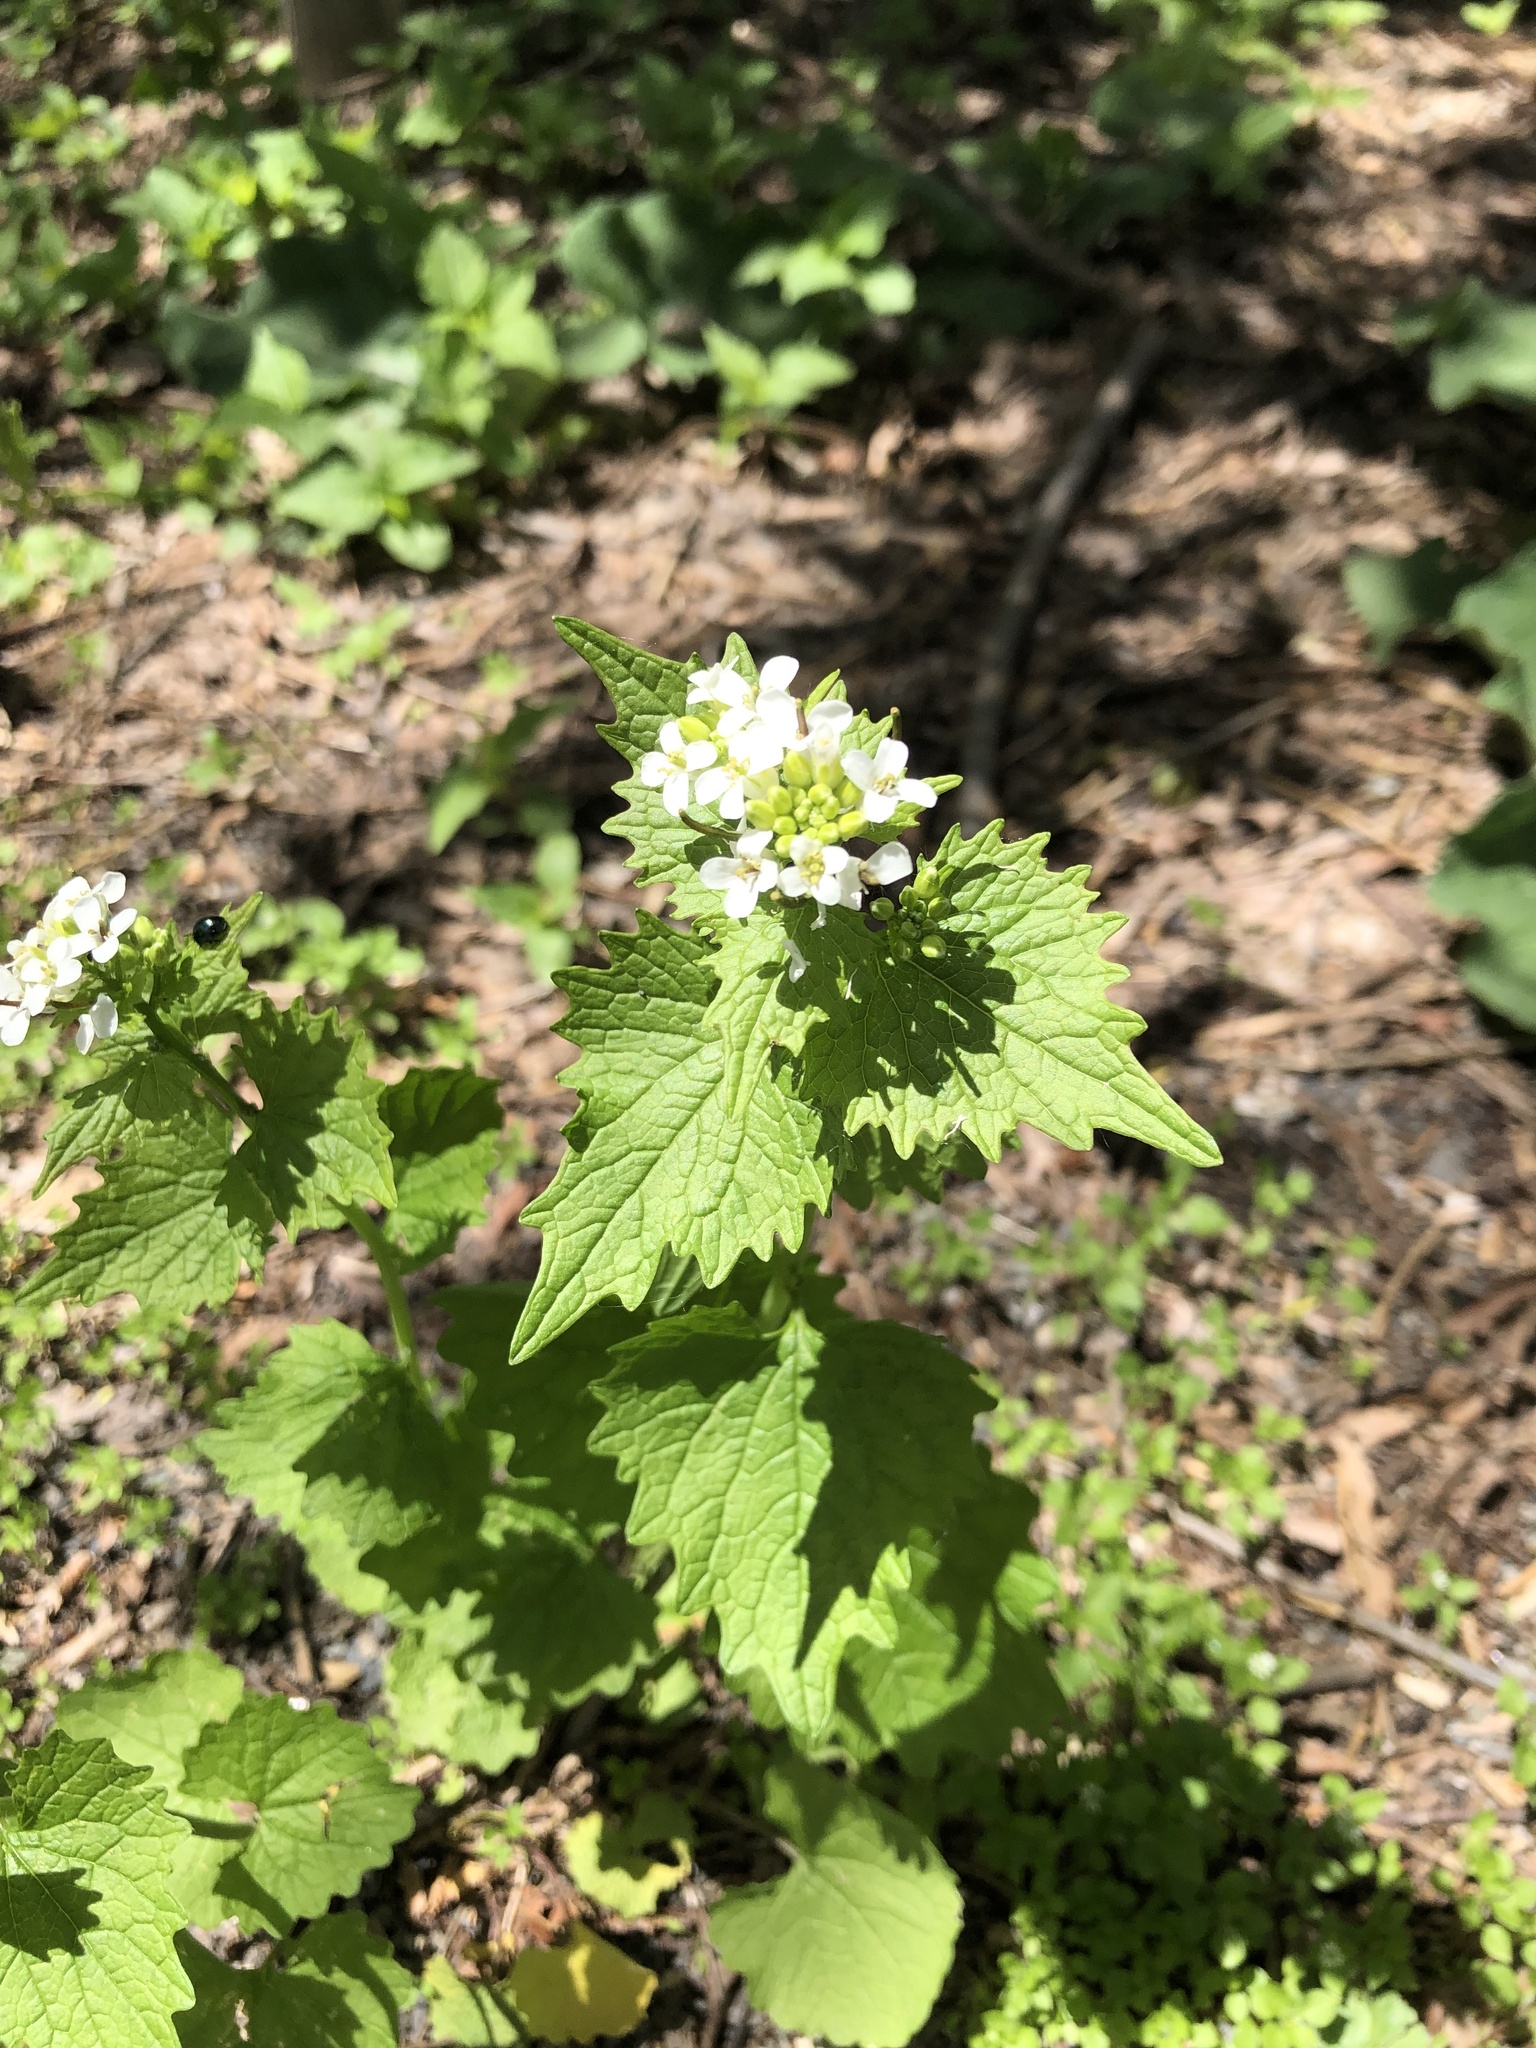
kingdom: Plantae
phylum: Tracheophyta
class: Magnoliopsida
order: Brassicales
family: Brassicaceae
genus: Alliaria
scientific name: Alliaria petiolata
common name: Garlic mustard
